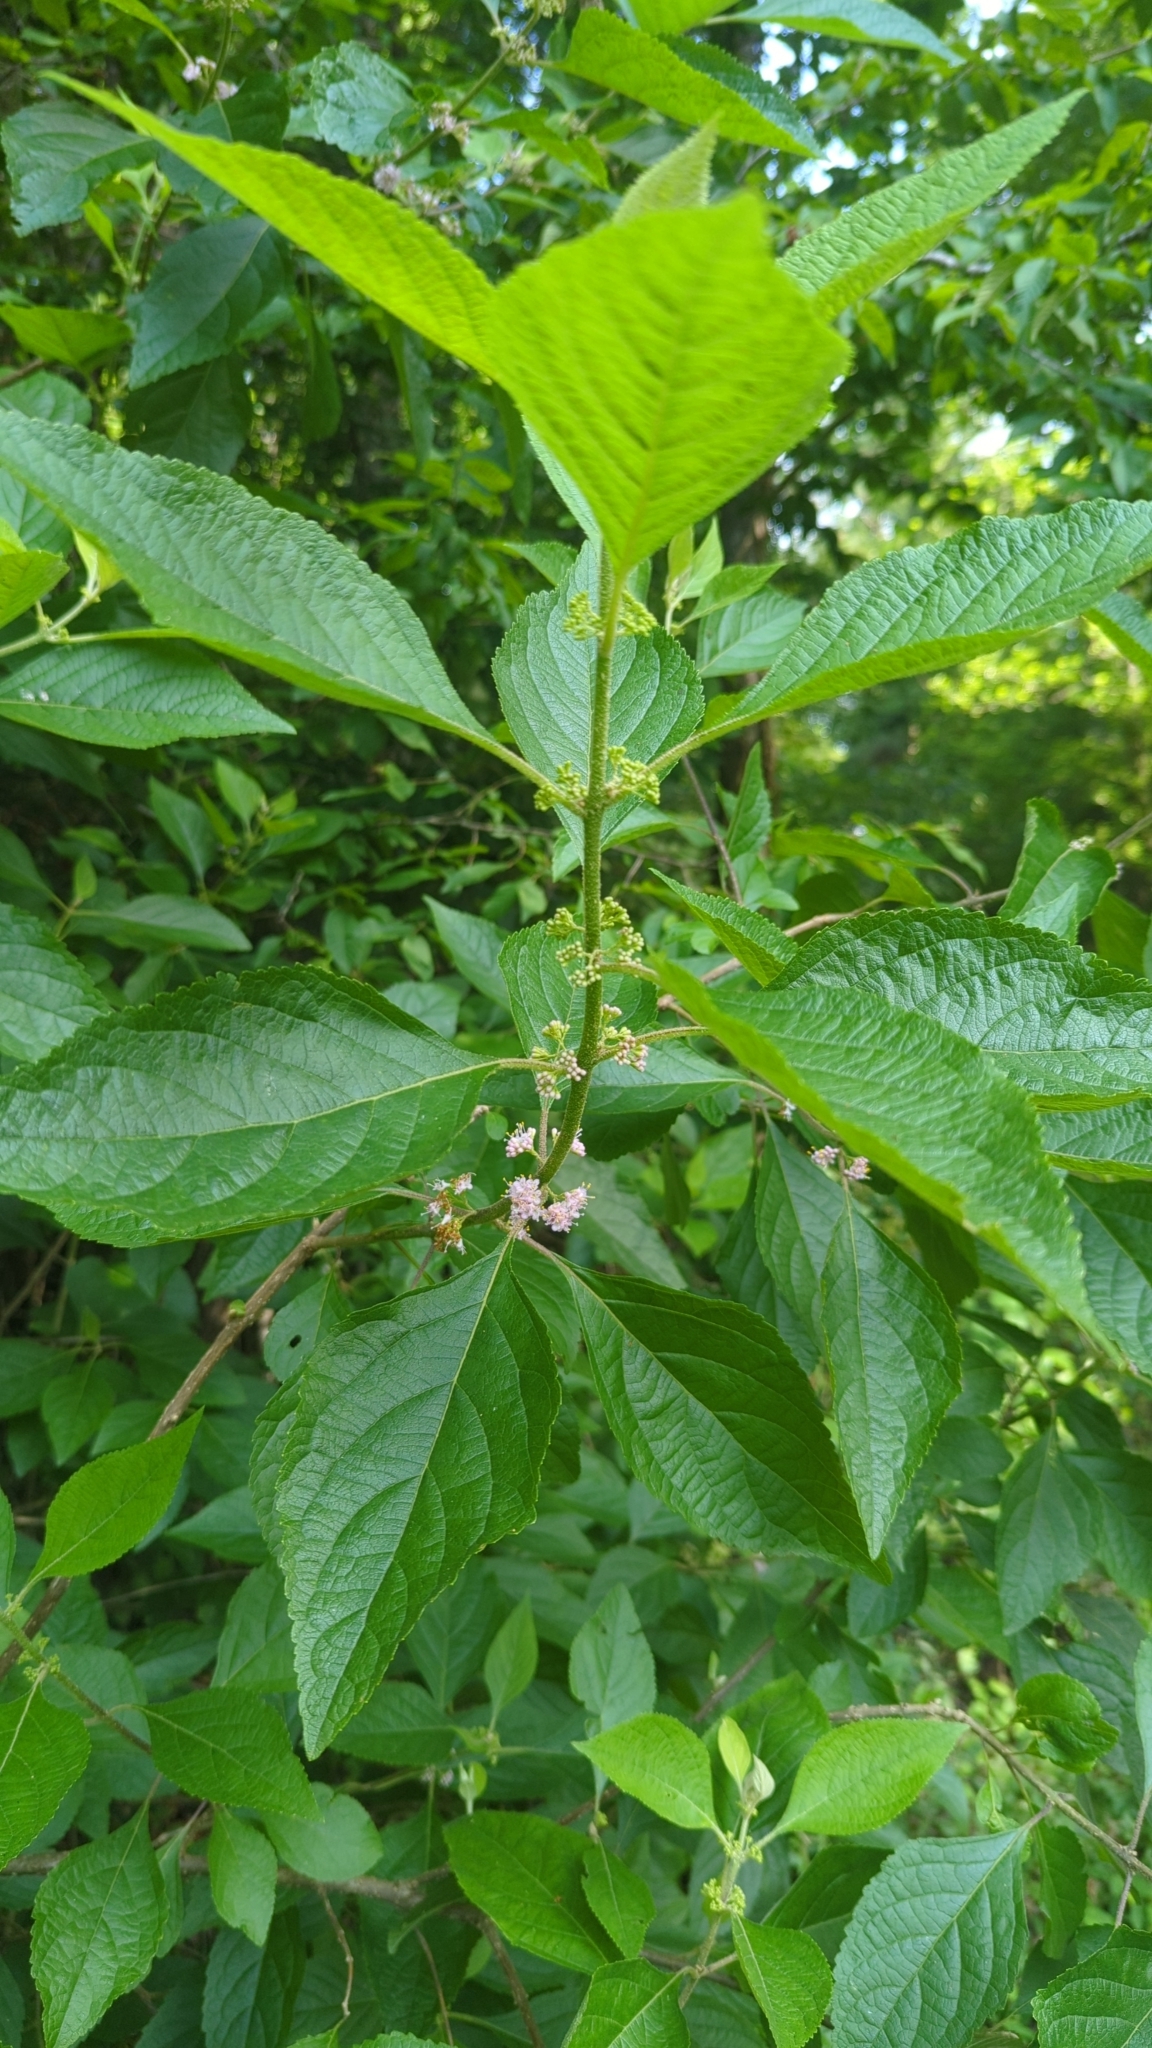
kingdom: Plantae
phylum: Tracheophyta
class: Magnoliopsida
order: Lamiales
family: Lamiaceae
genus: Callicarpa
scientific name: Callicarpa americana
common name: American beautyberry
